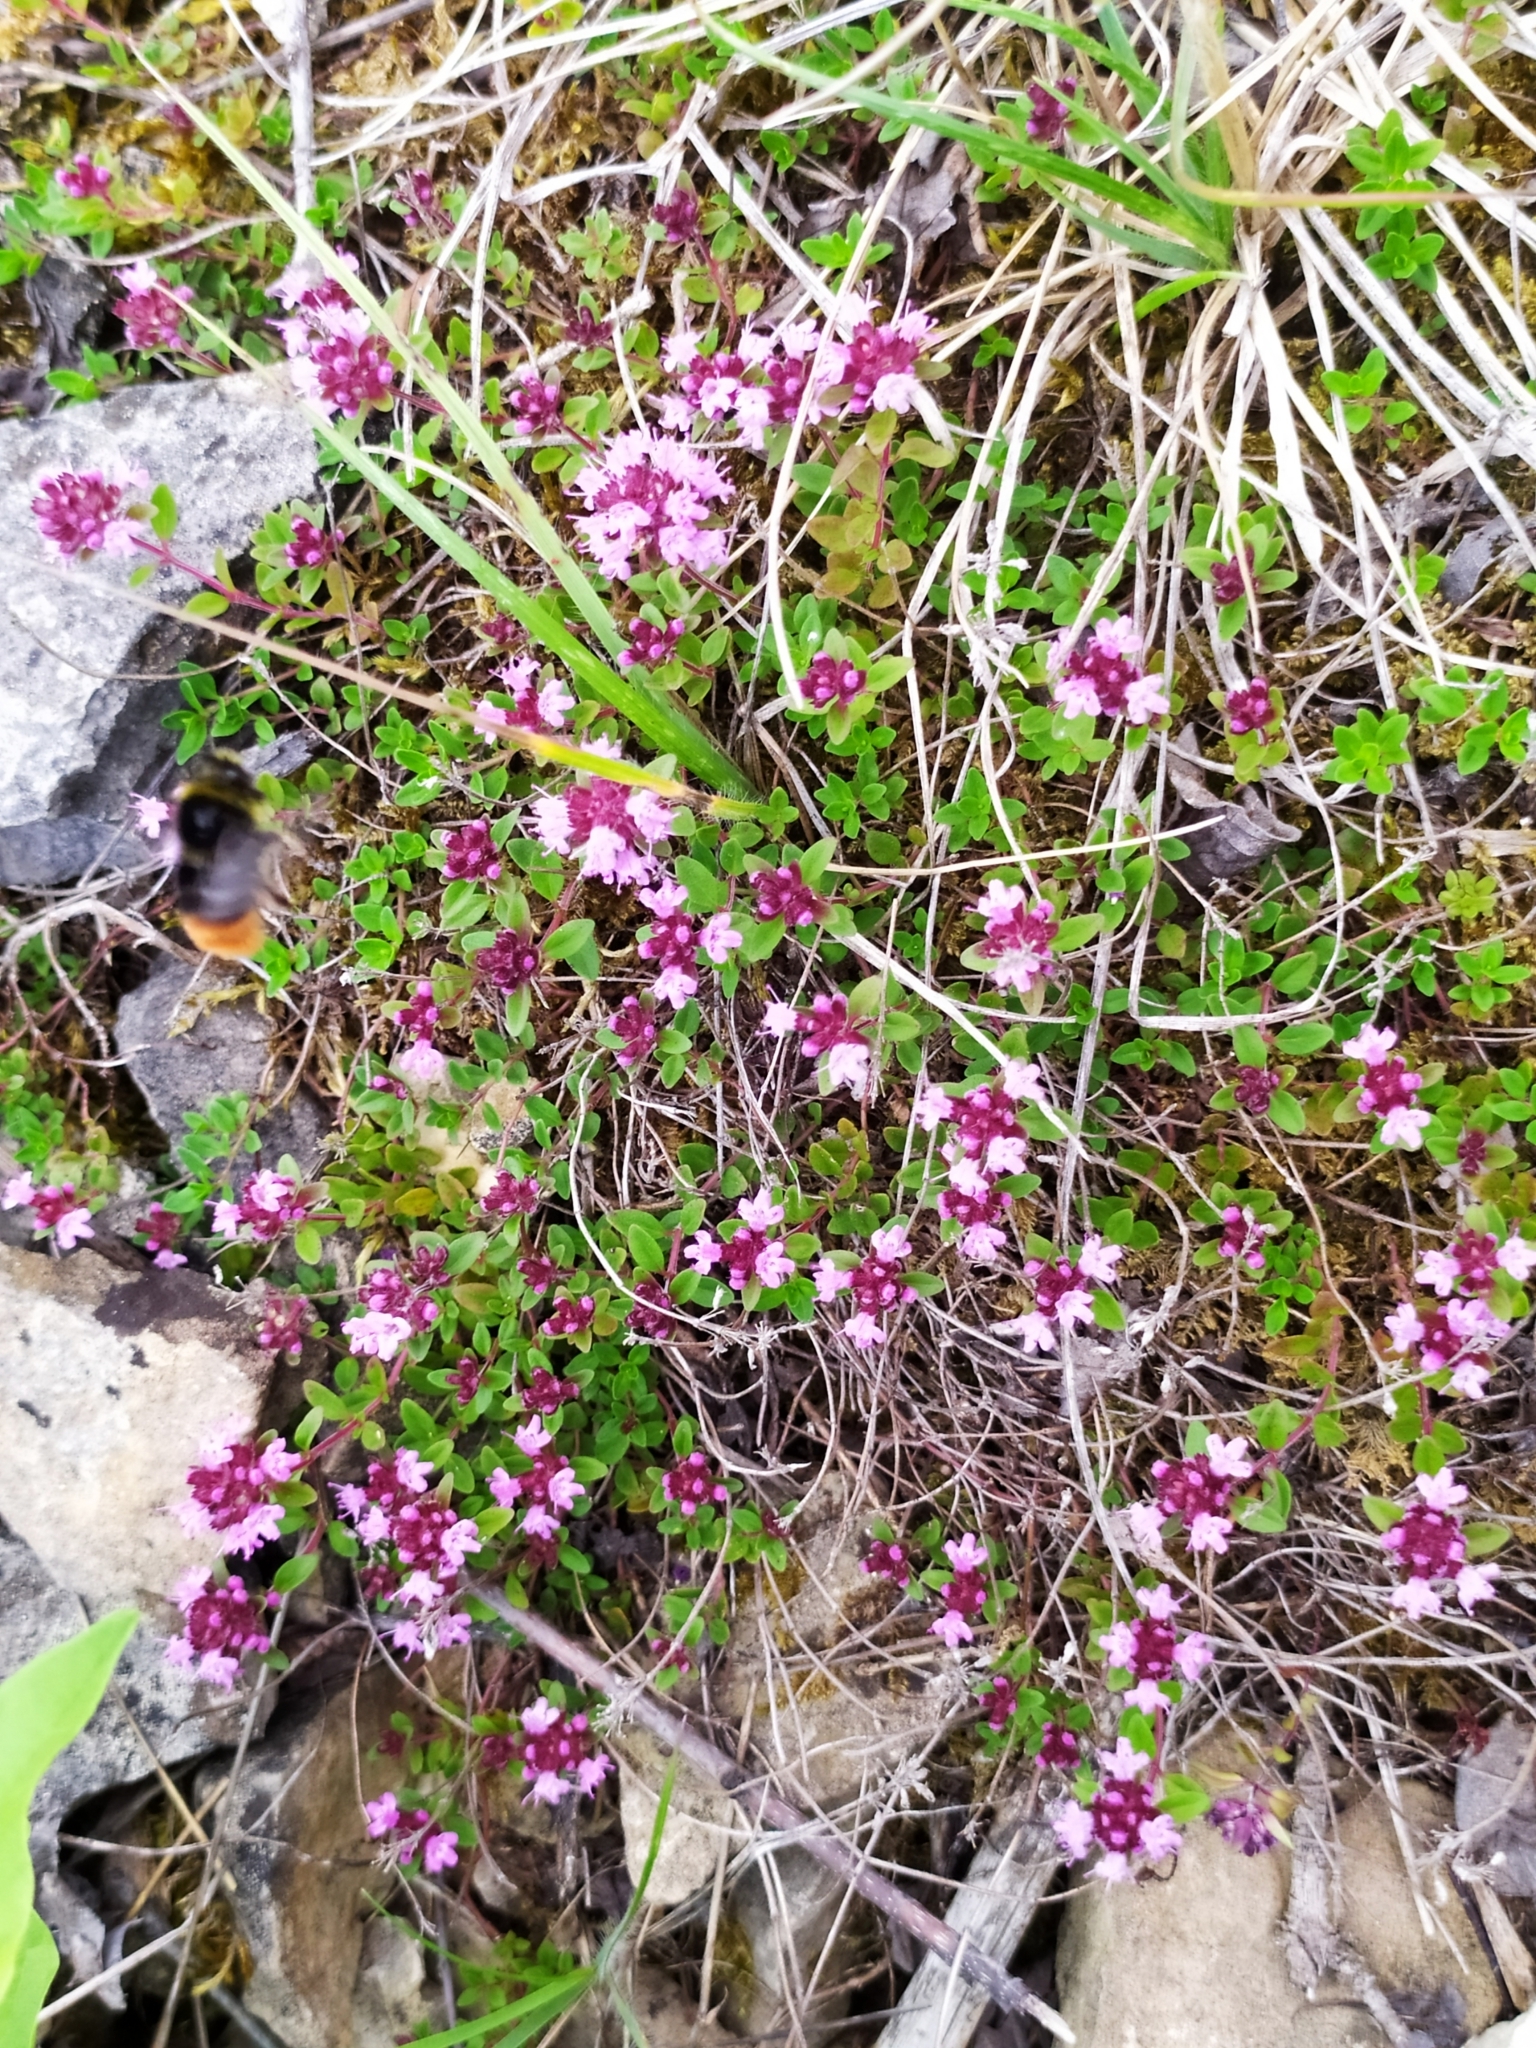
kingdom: Plantae
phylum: Tracheophyta
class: Magnoliopsida
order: Lamiales
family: Lamiaceae
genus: Thymus
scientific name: Thymus pulegioides
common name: Large thyme
